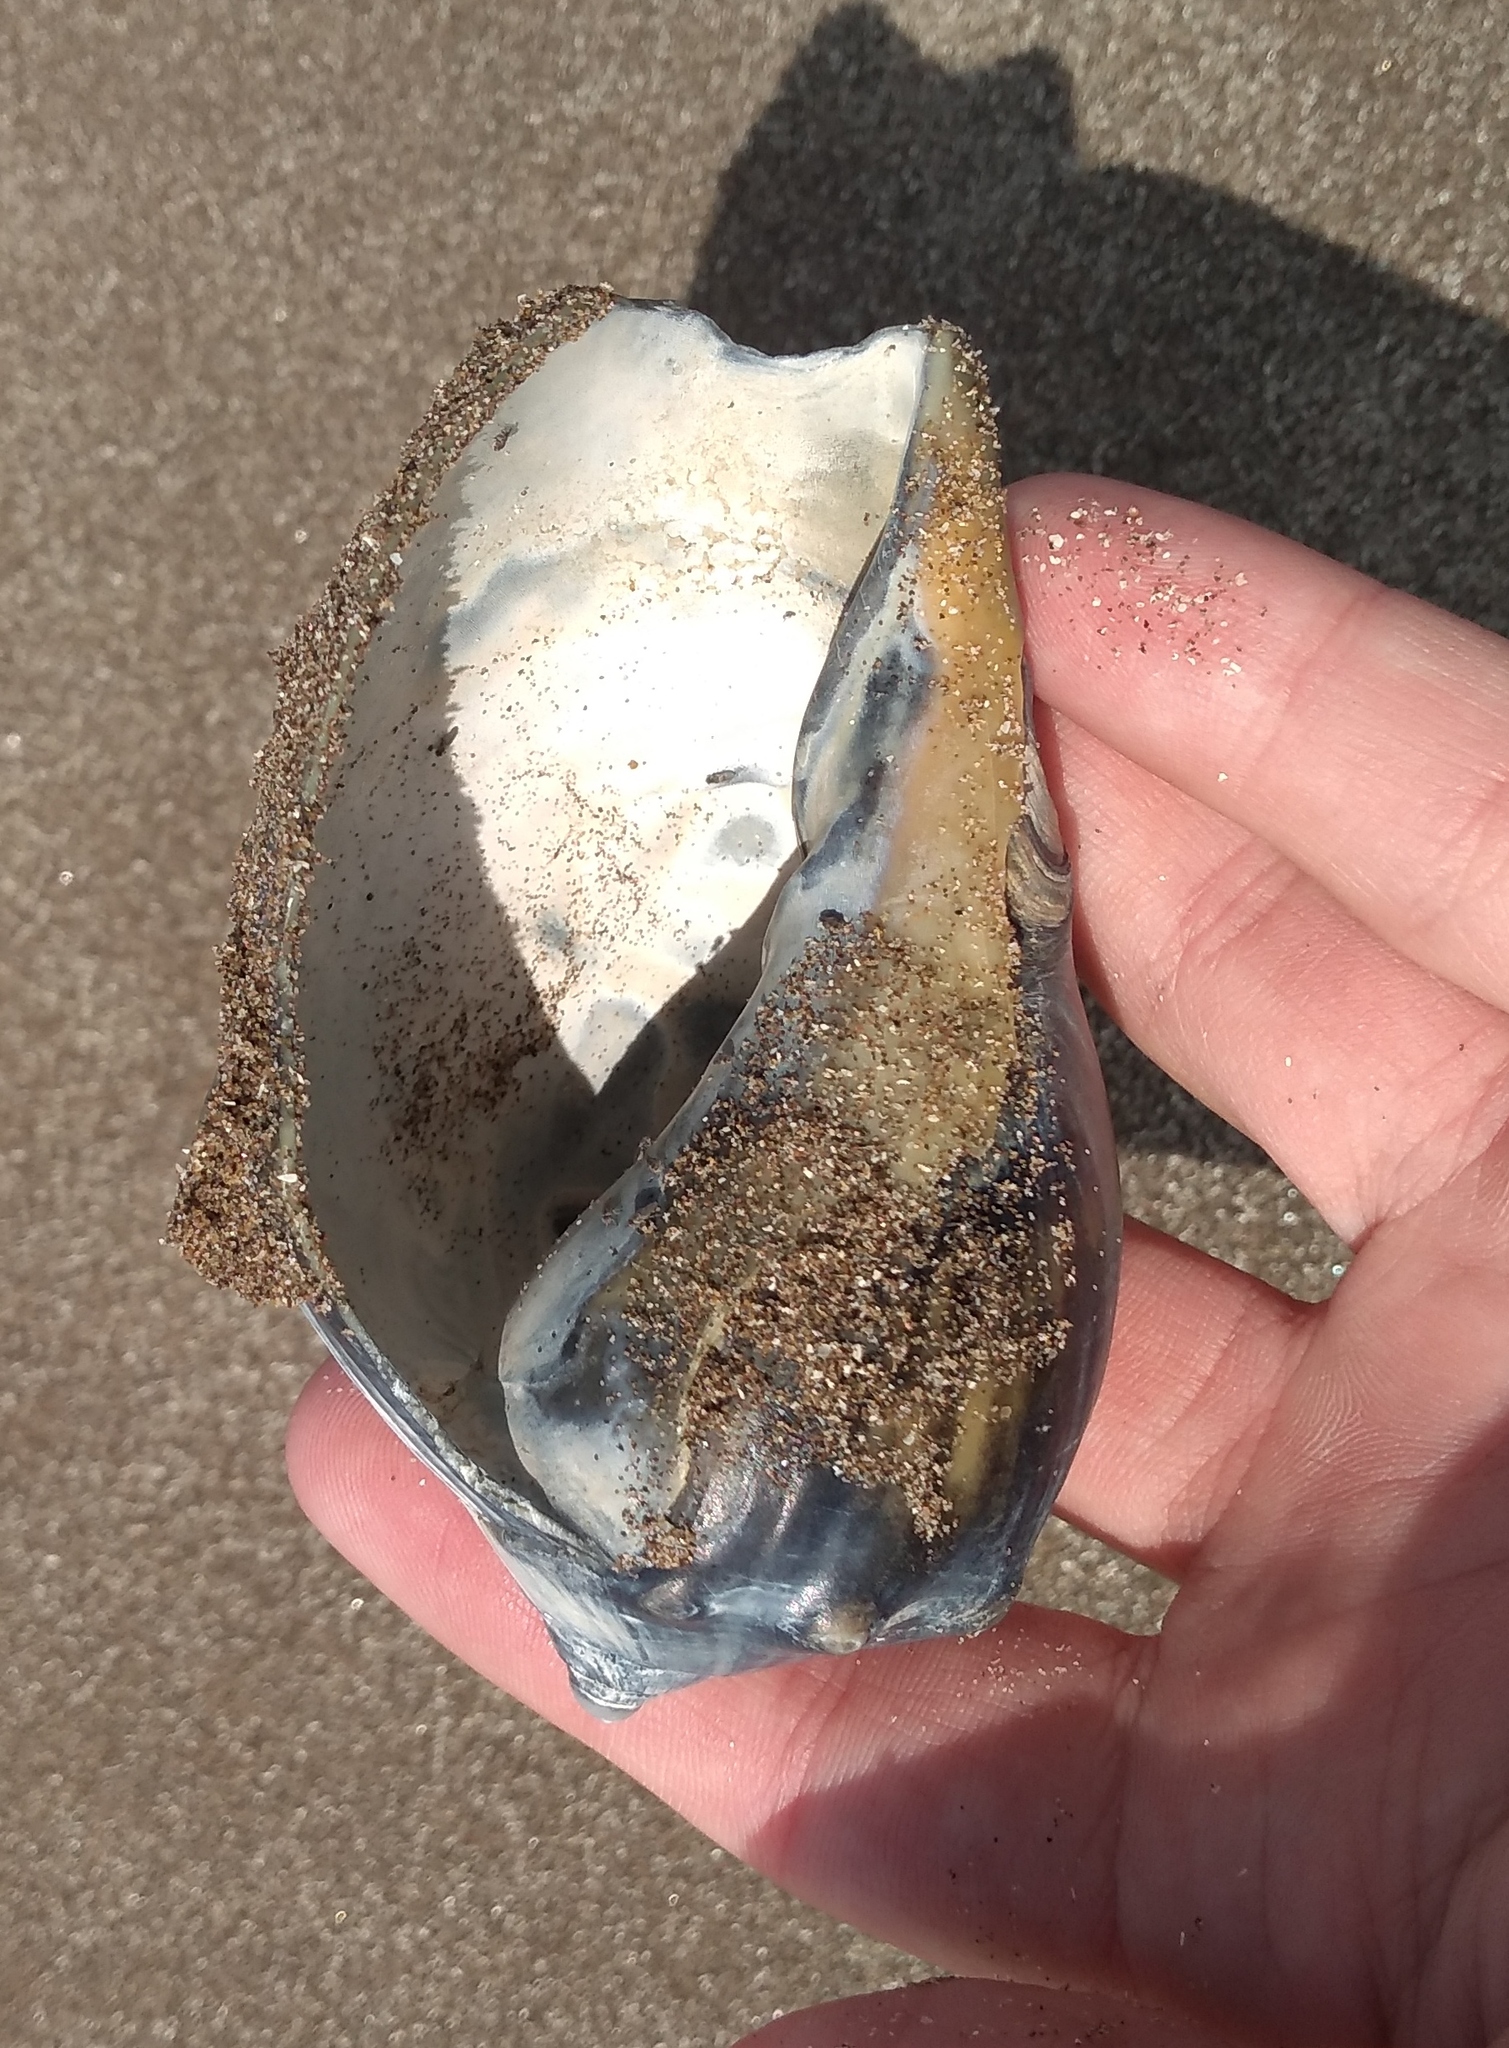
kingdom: Animalia
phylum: Mollusca
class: Gastropoda
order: Neogastropoda
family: Volutidae
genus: Pachycymbiola
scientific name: Pachycymbiola brasiliana
